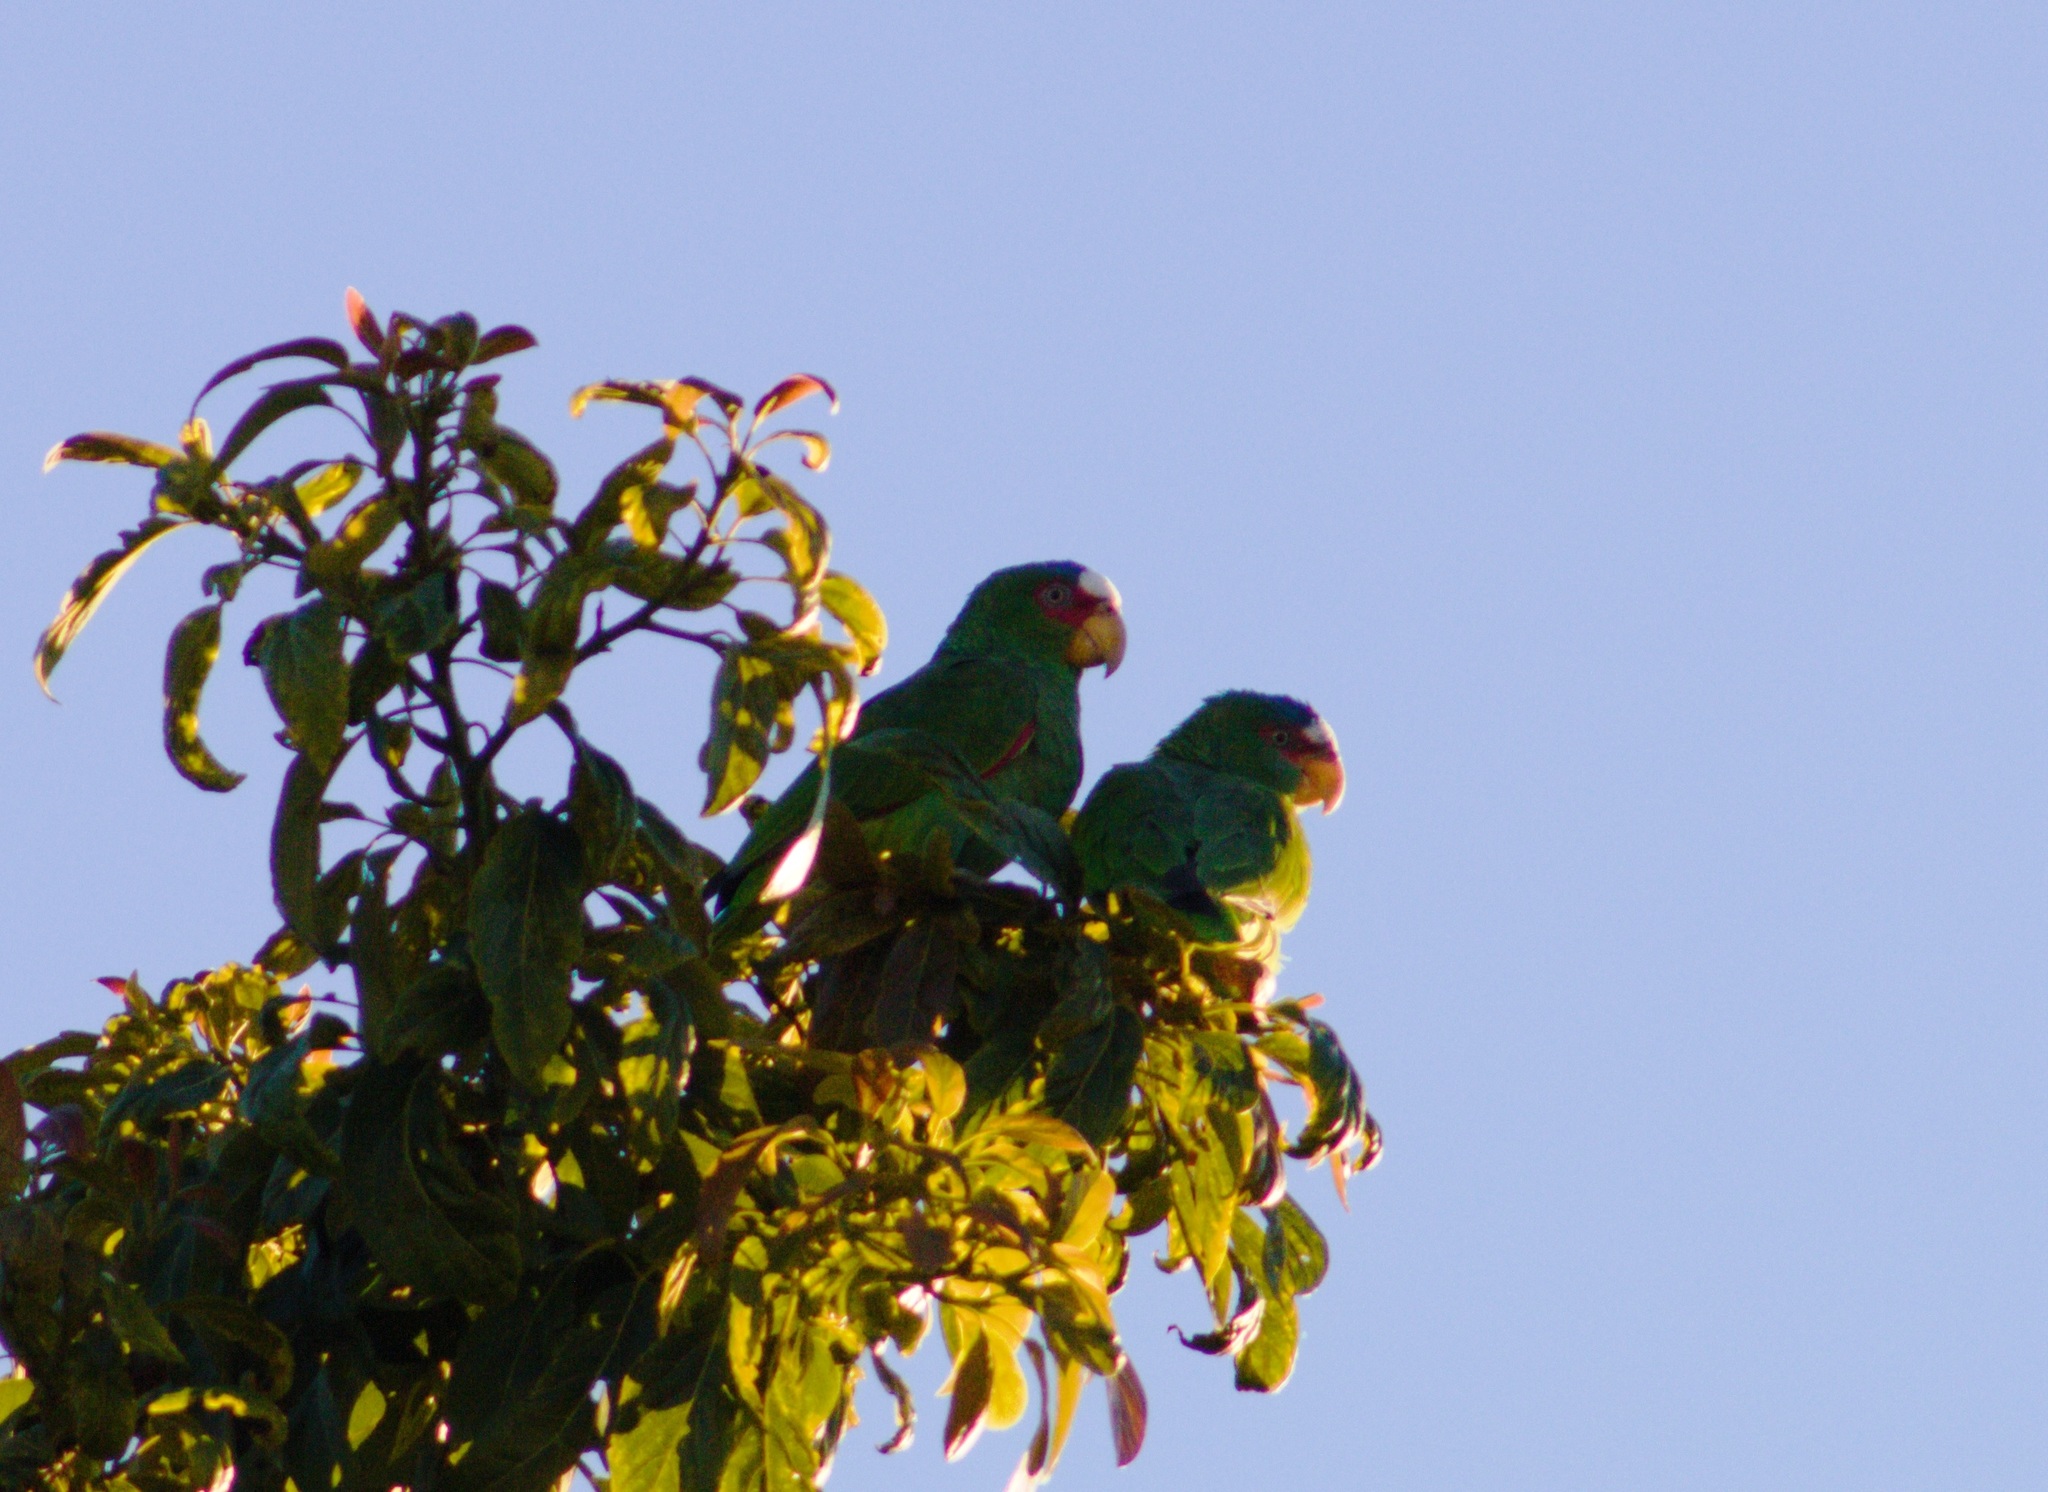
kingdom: Animalia
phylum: Chordata
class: Aves
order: Psittaciformes
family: Psittacidae
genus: Amazona
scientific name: Amazona albifrons
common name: White-fronted amazon
